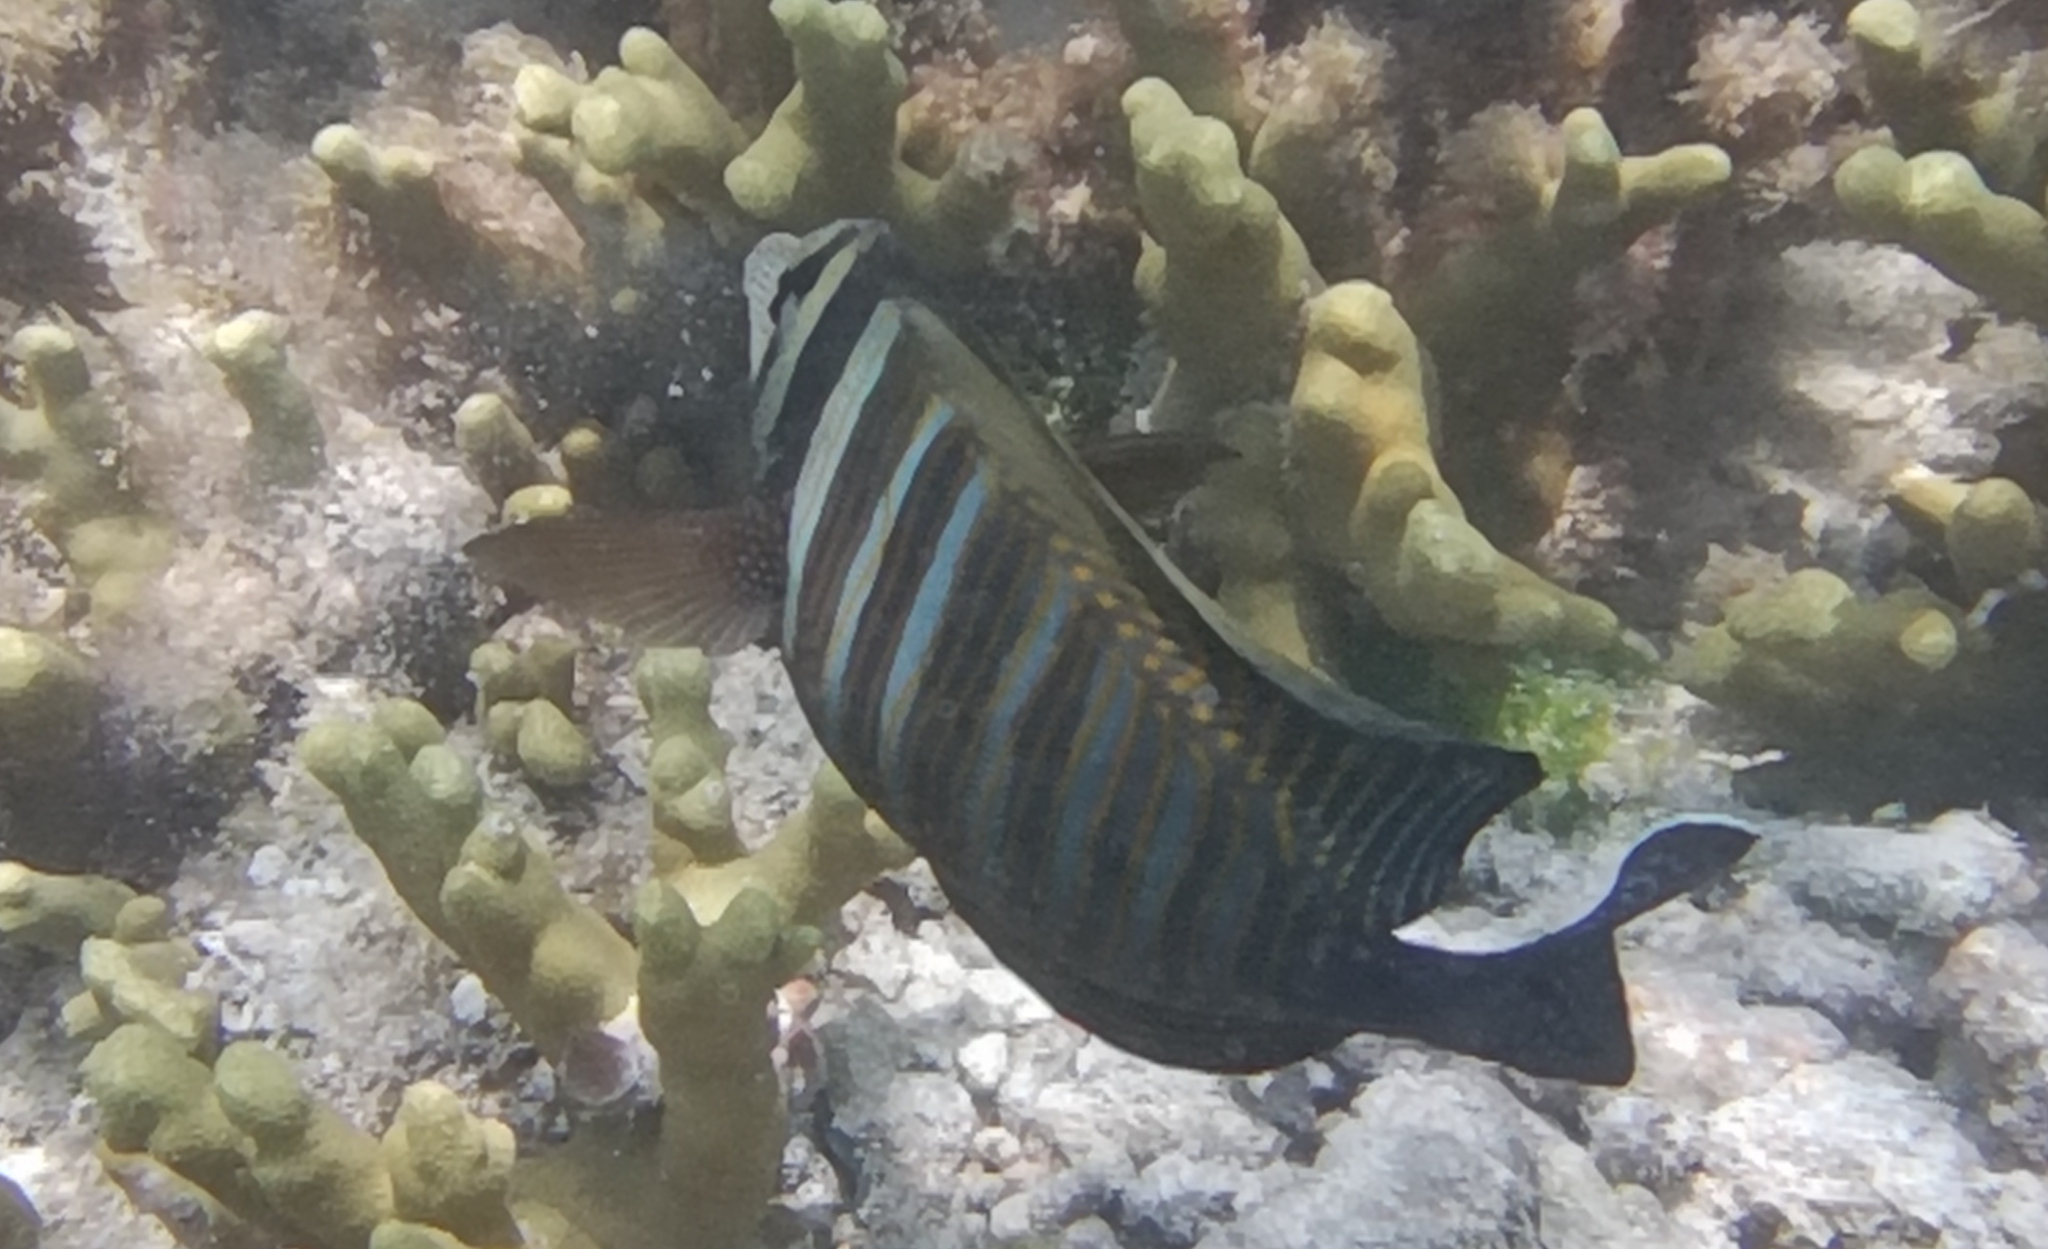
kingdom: Animalia
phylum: Chordata
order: Perciformes
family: Acanthuridae
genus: Zebrasoma
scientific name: Zebrasoma desjardinii
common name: Desjardin's sailfin tang
